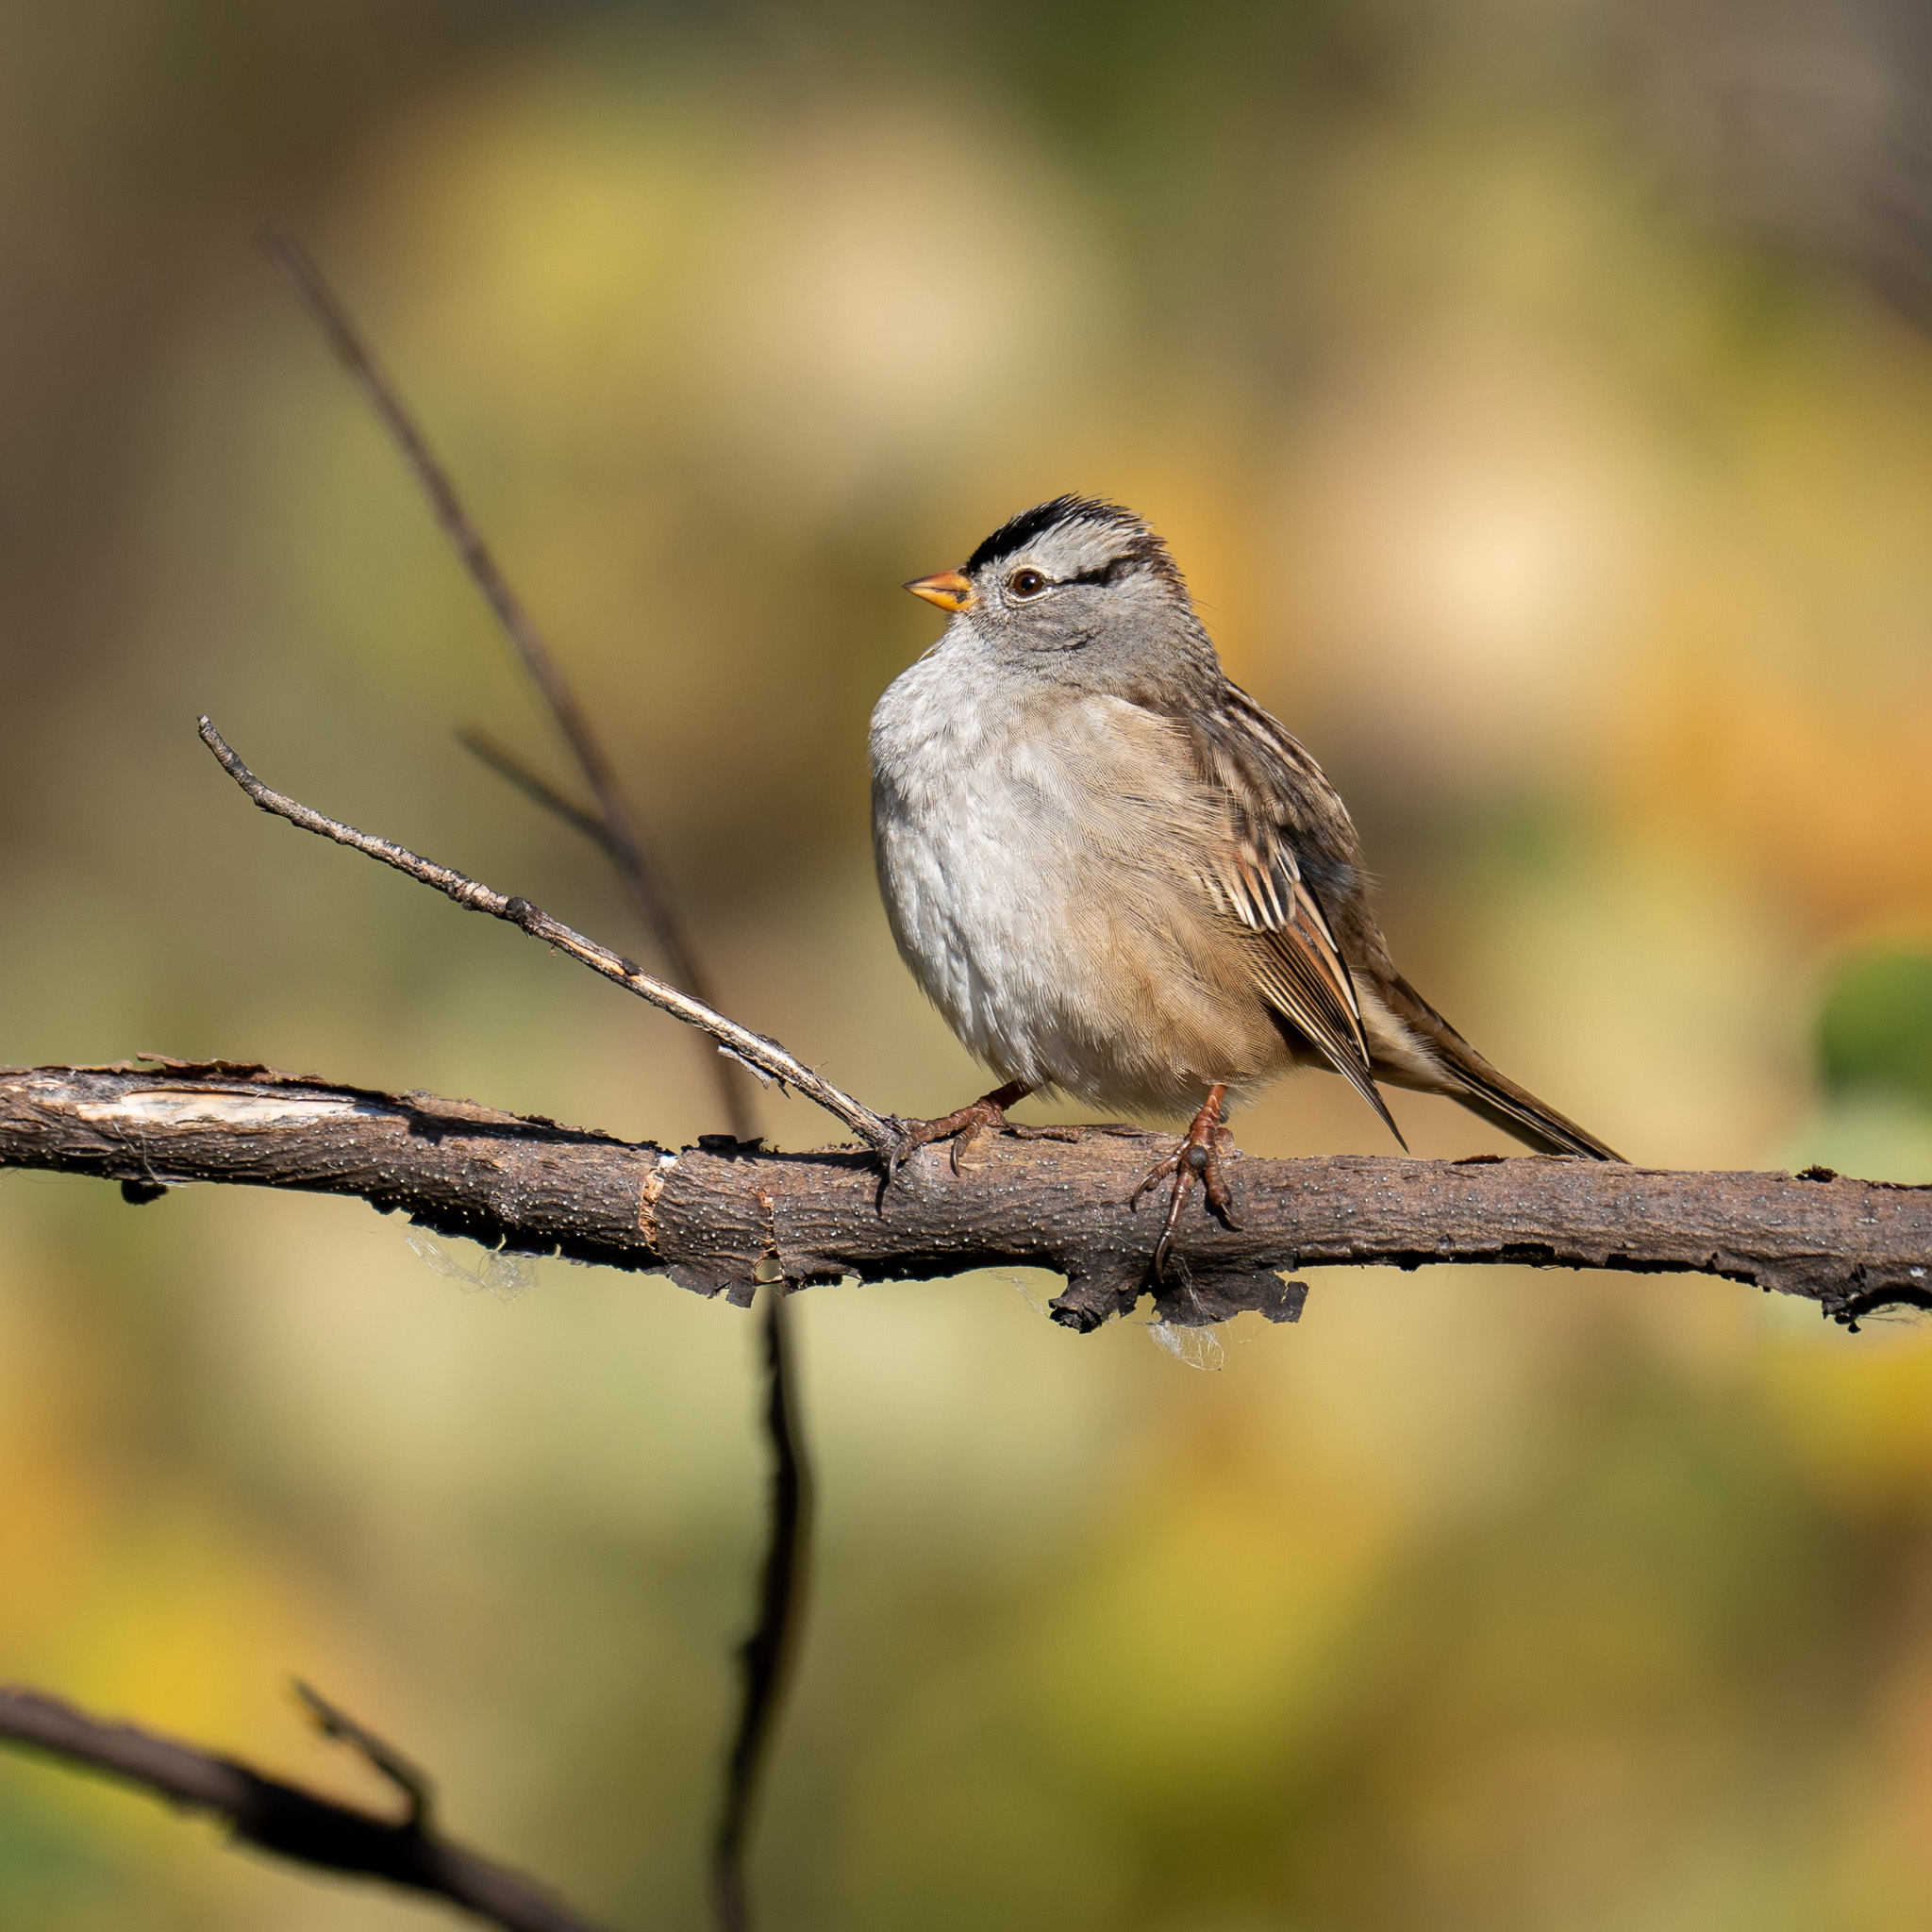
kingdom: Animalia
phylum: Chordata
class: Aves
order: Passeriformes
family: Passerellidae
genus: Zonotrichia
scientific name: Zonotrichia leucophrys
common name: White-crowned sparrow
